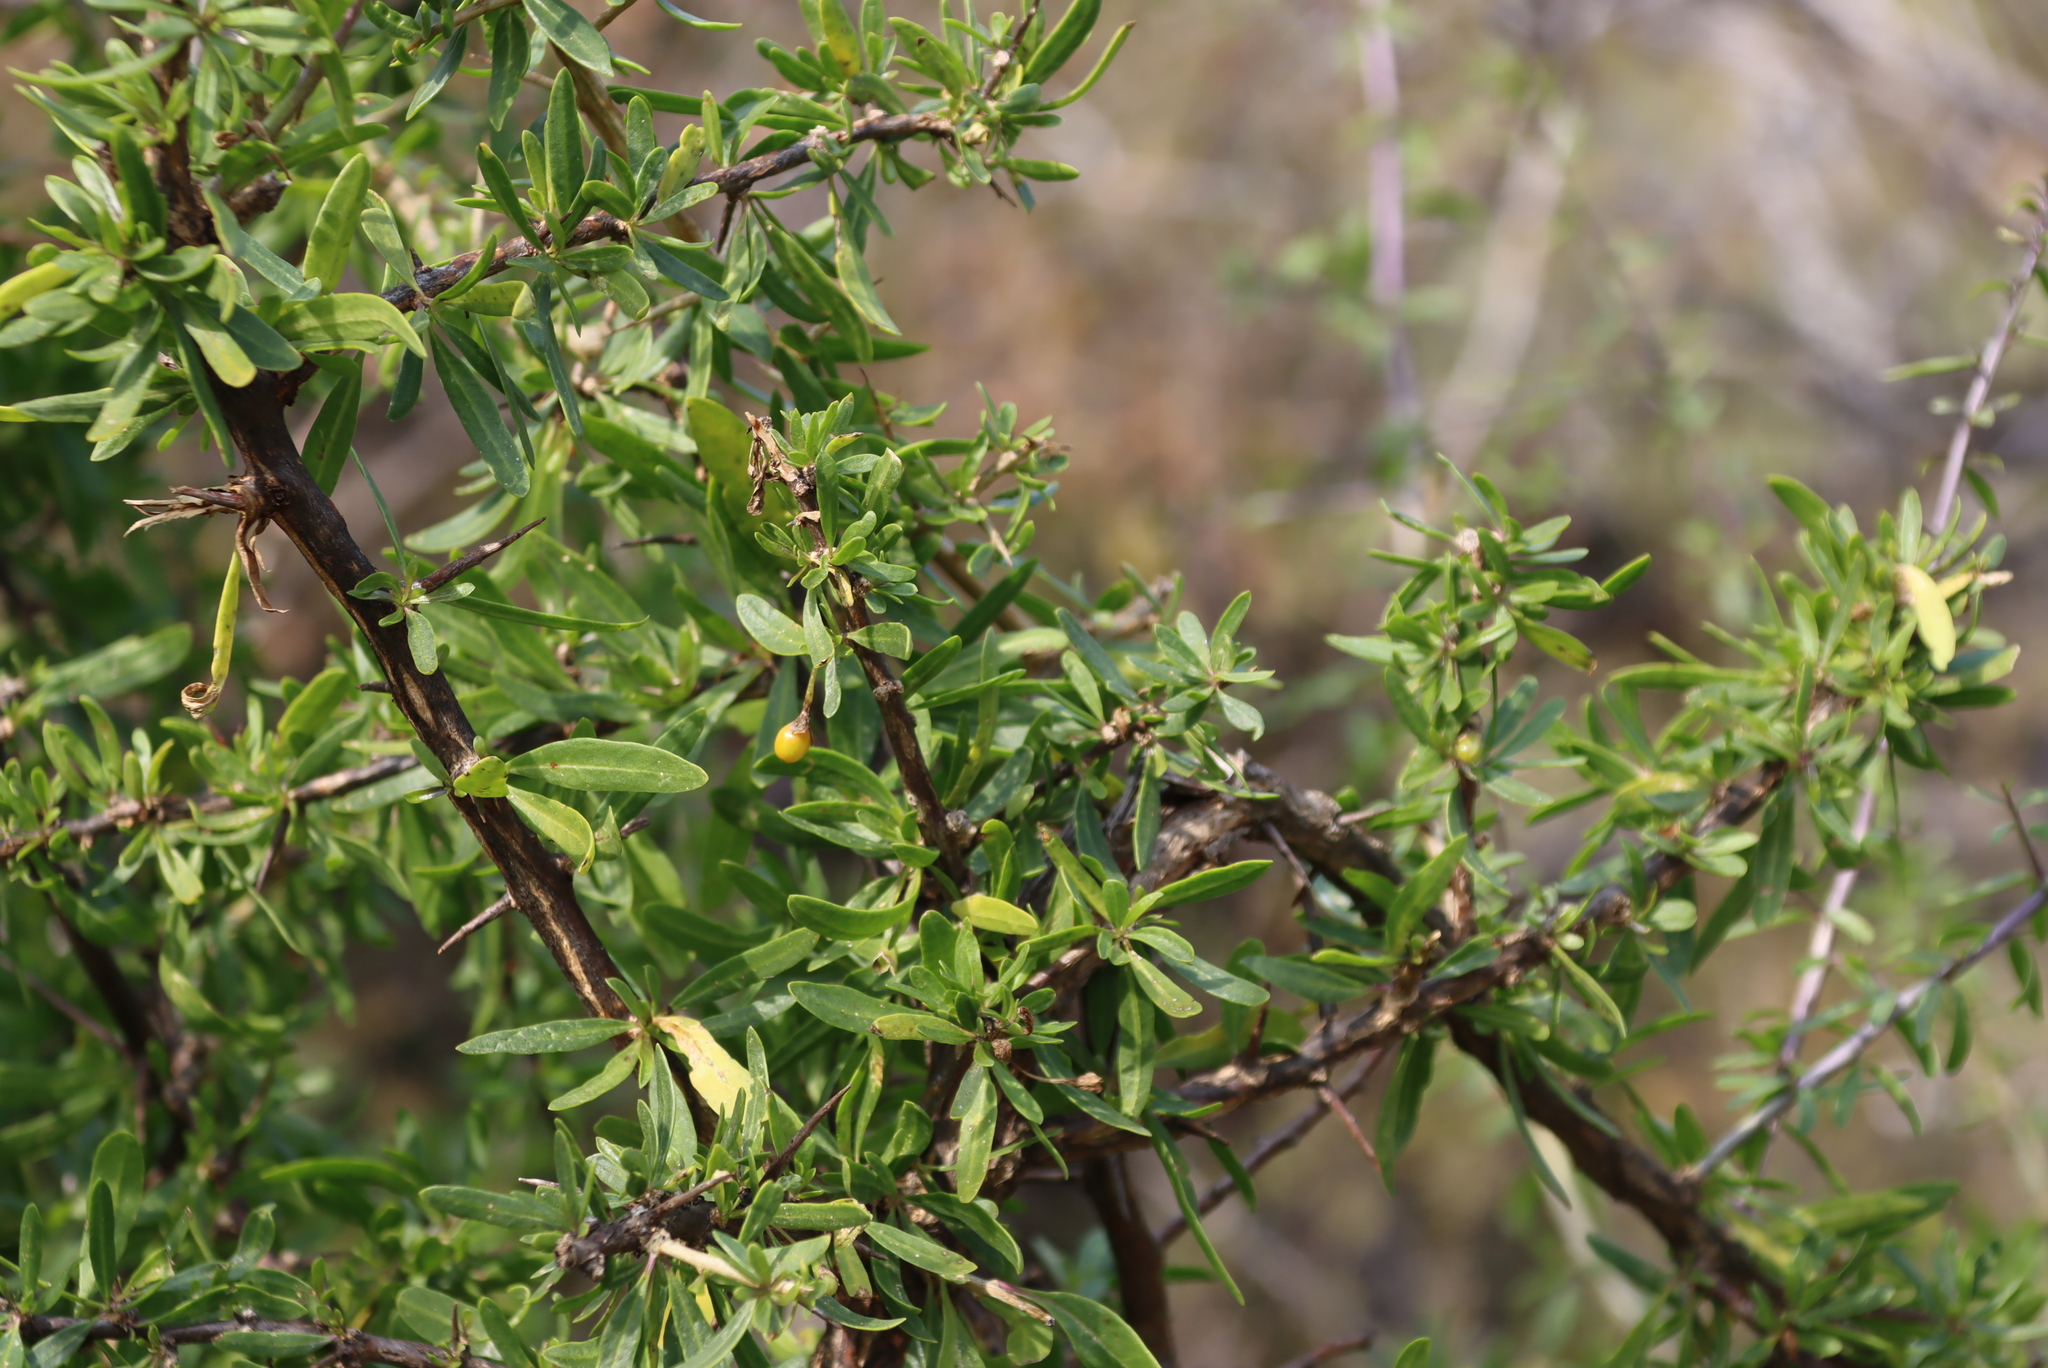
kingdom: Plantae
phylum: Tracheophyta
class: Magnoliopsida
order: Solanales
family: Solanaceae
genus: Lycium
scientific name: Lycium oxycarpum
